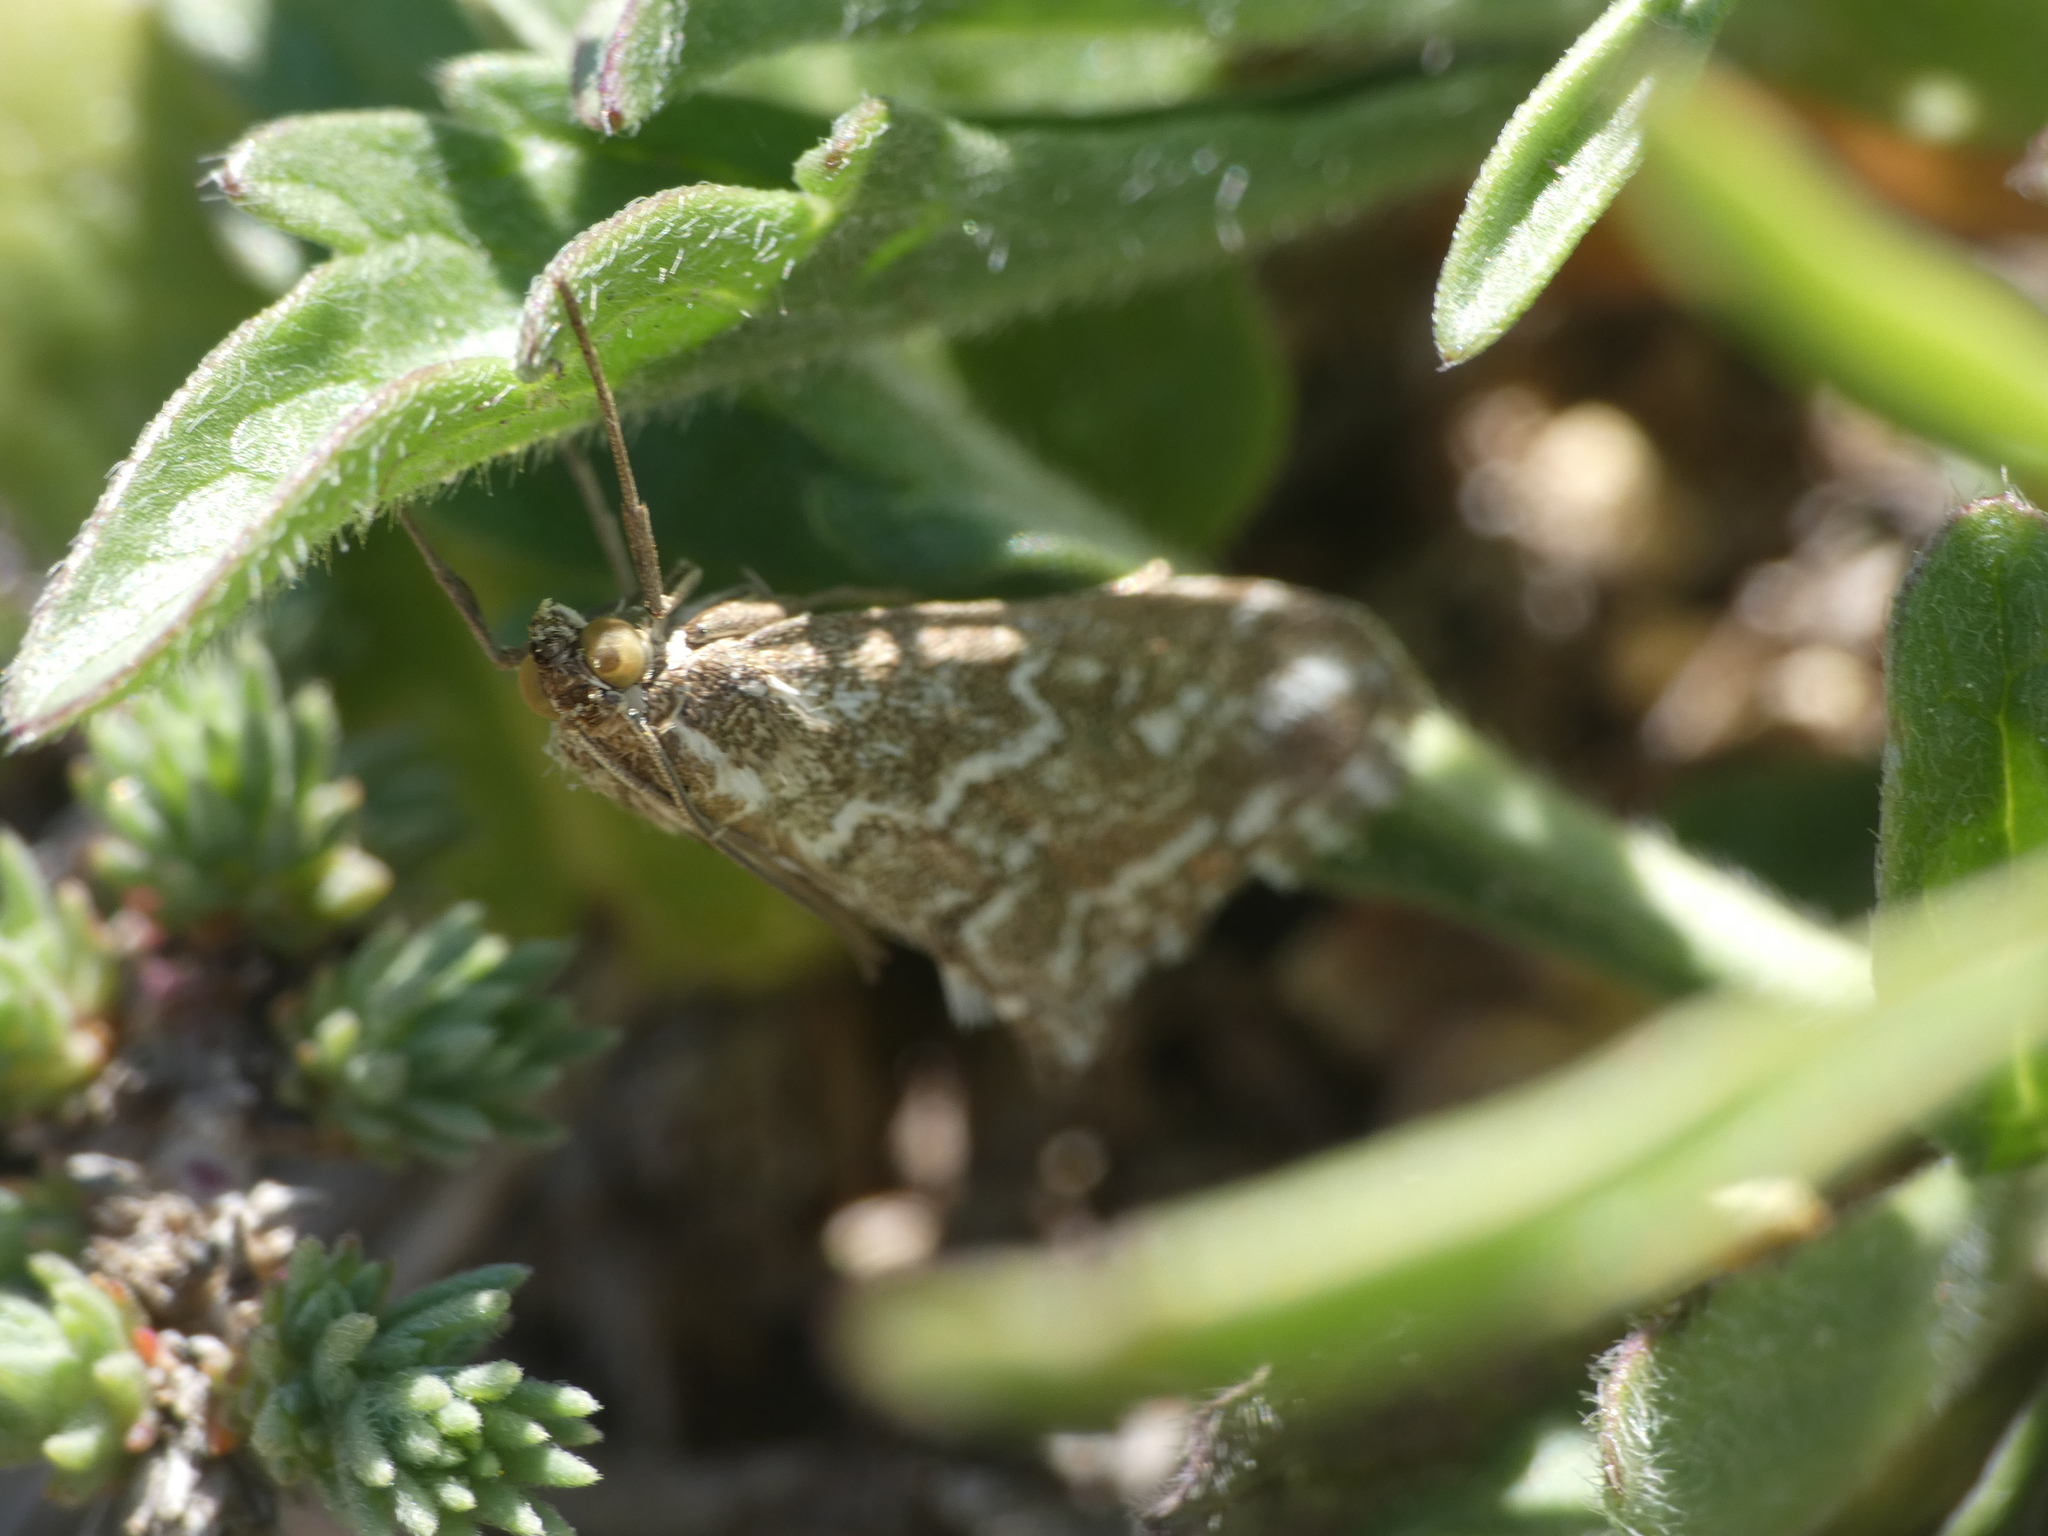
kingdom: Animalia
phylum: Arthropoda
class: Insecta
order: Lepidoptera
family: Crambidae
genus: Evergestis
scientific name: Evergestis frumentalis
